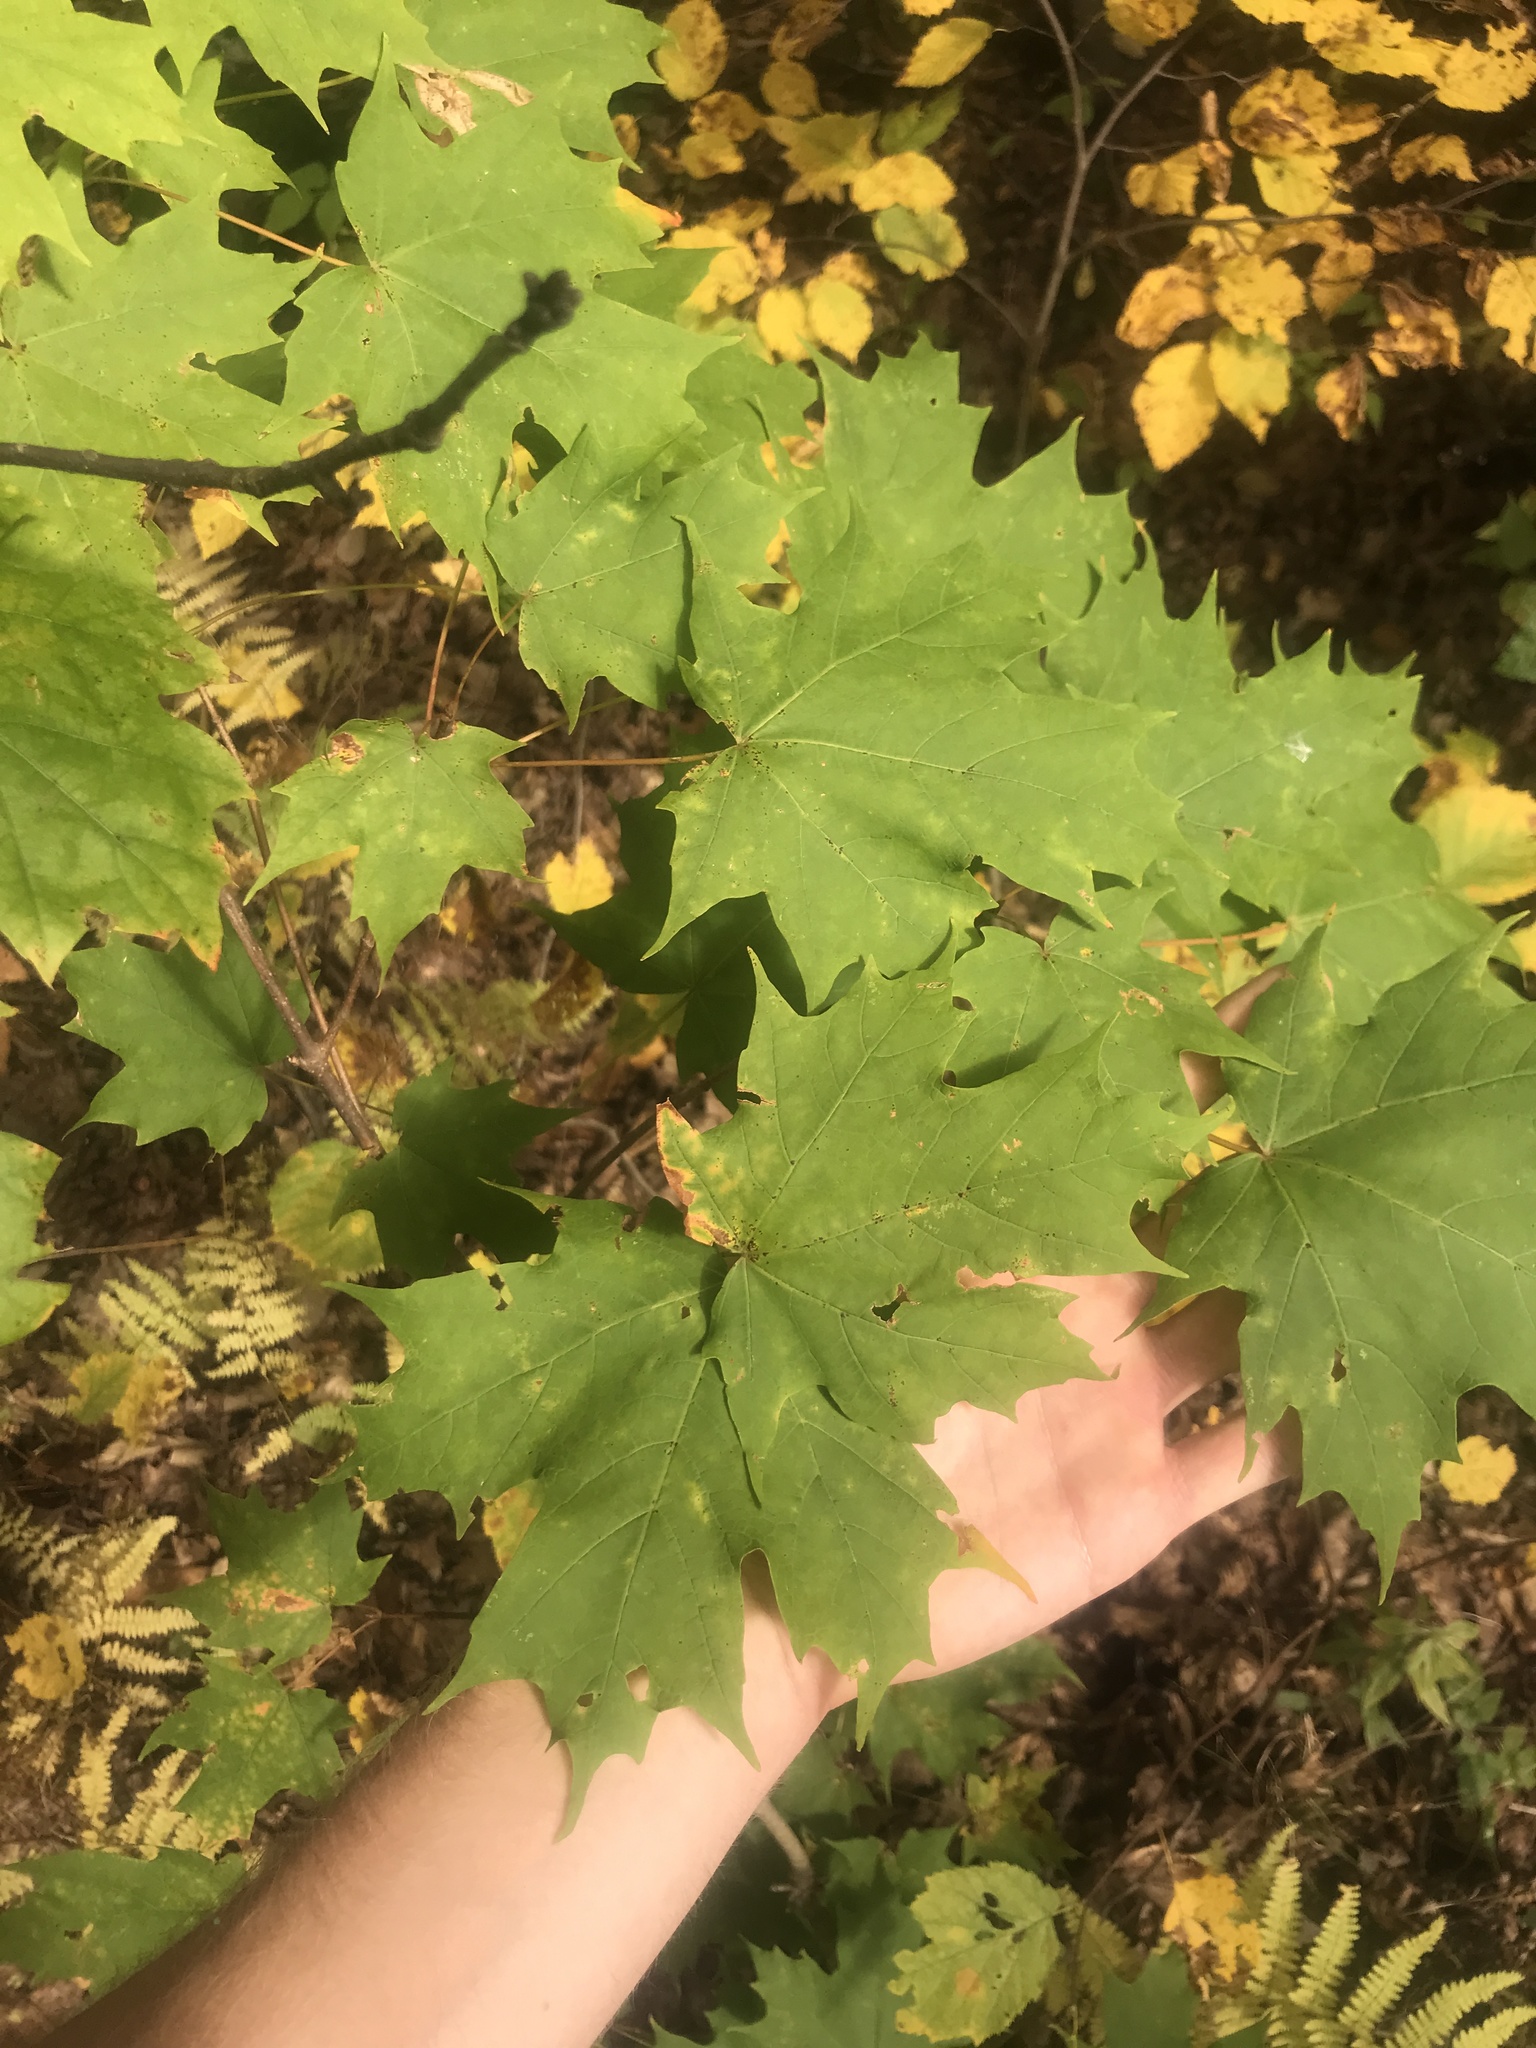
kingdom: Plantae
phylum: Tracheophyta
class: Magnoliopsida
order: Sapindales
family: Sapindaceae
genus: Acer
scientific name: Acer saccharum
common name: Sugar maple
